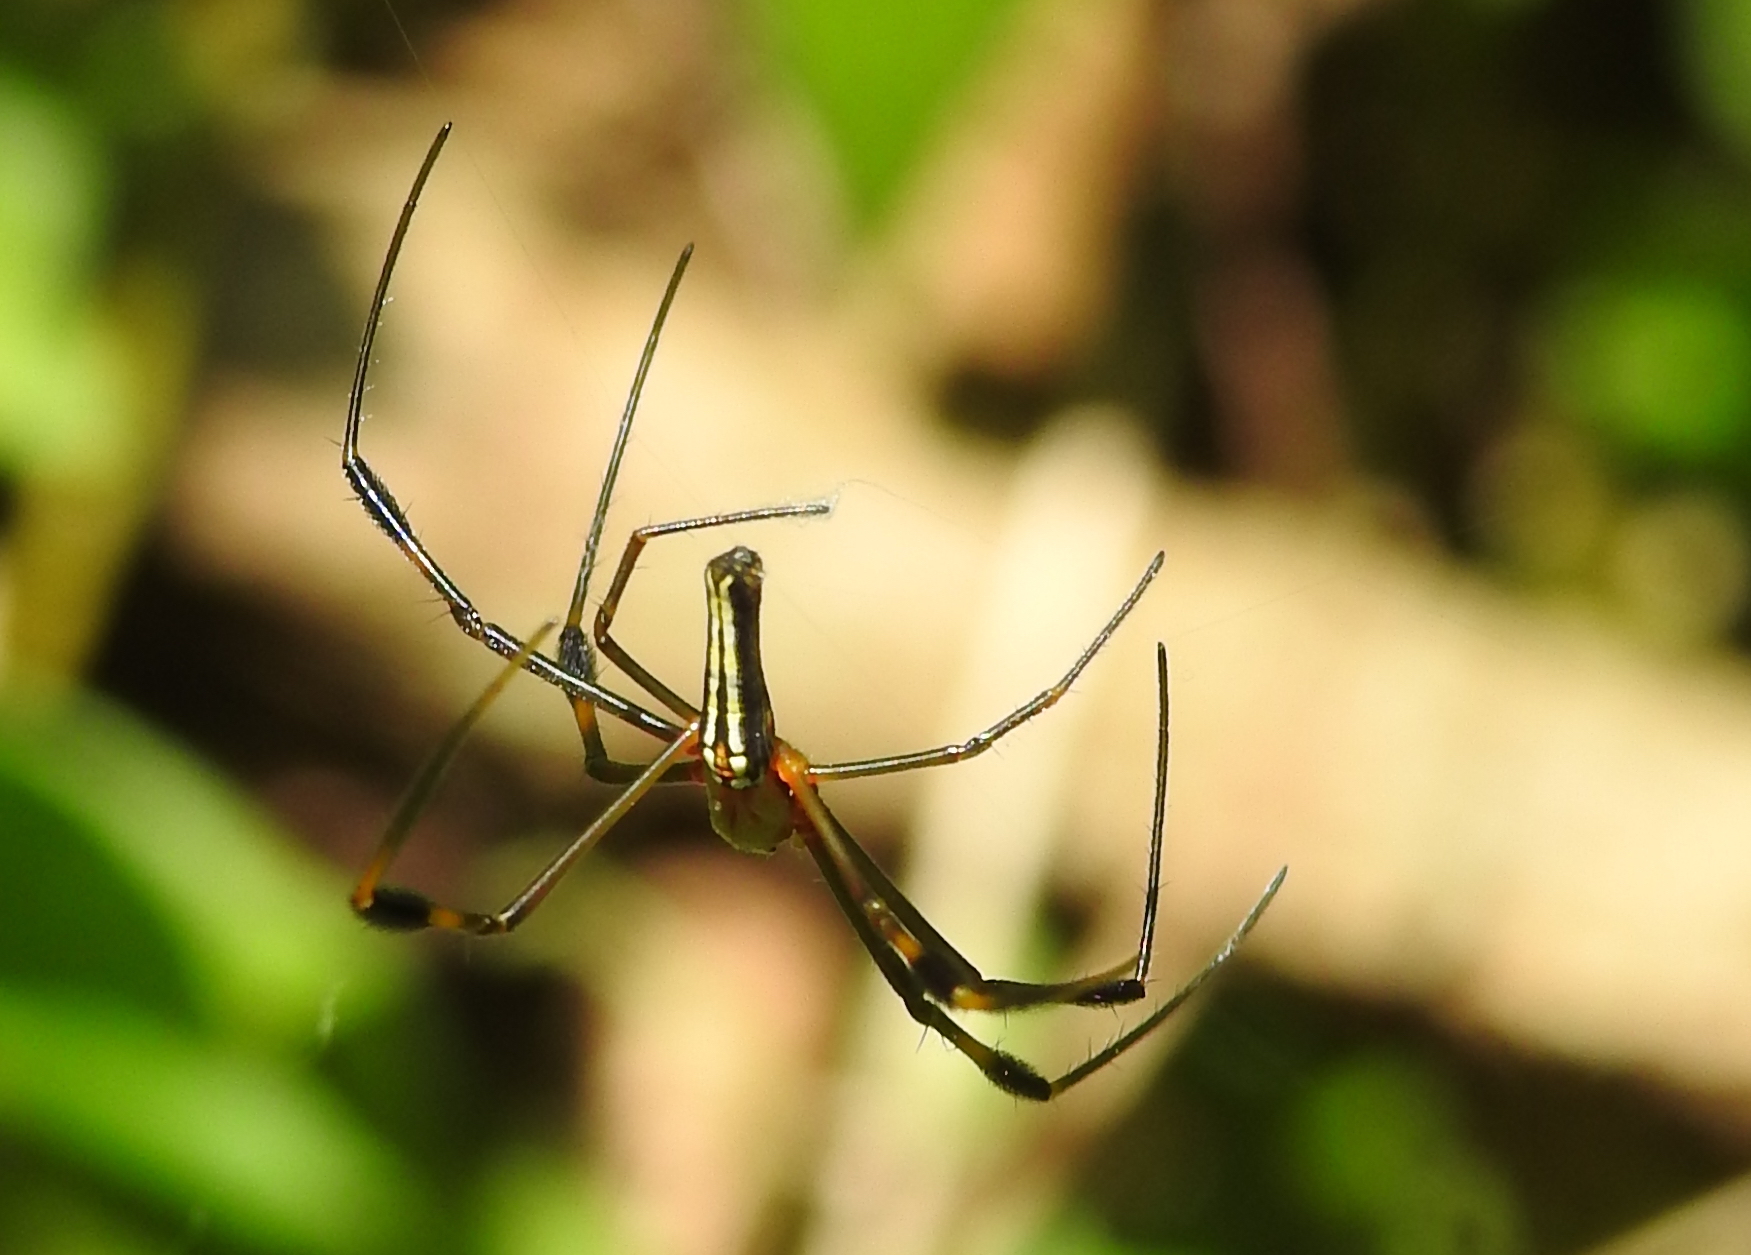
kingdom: Animalia
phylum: Arthropoda
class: Arachnida
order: Araneae
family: Araneidae
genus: Nephila
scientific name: Nephila pilipes
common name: Giant golden orb weaver
